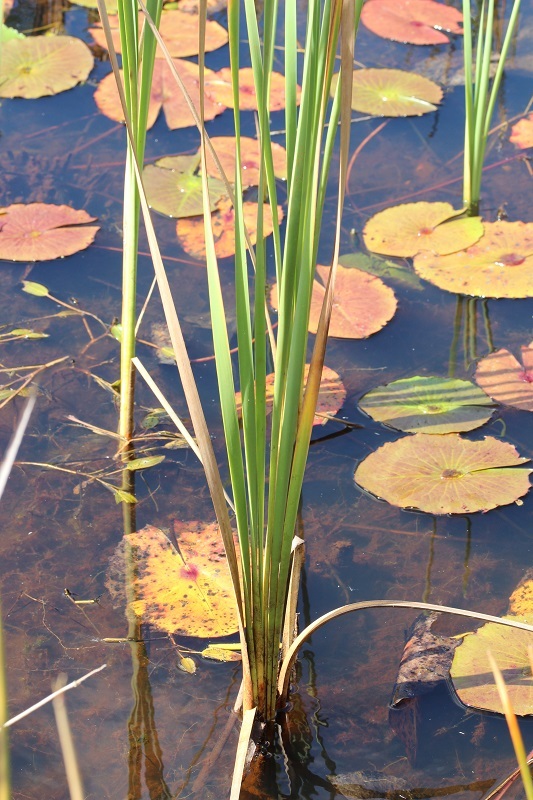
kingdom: Plantae
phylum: Tracheophyta
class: Liliopsida
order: Poales
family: Typhaceae
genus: Typha
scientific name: Typha capensis
